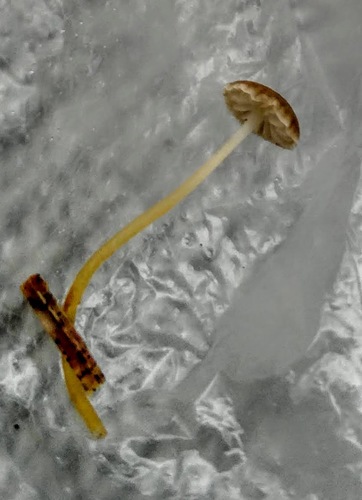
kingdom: Fungi
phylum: Basidiomycota
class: Agaricomycetes
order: Agaricales
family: Mycenaceae
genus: Mycena
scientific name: Mycena
